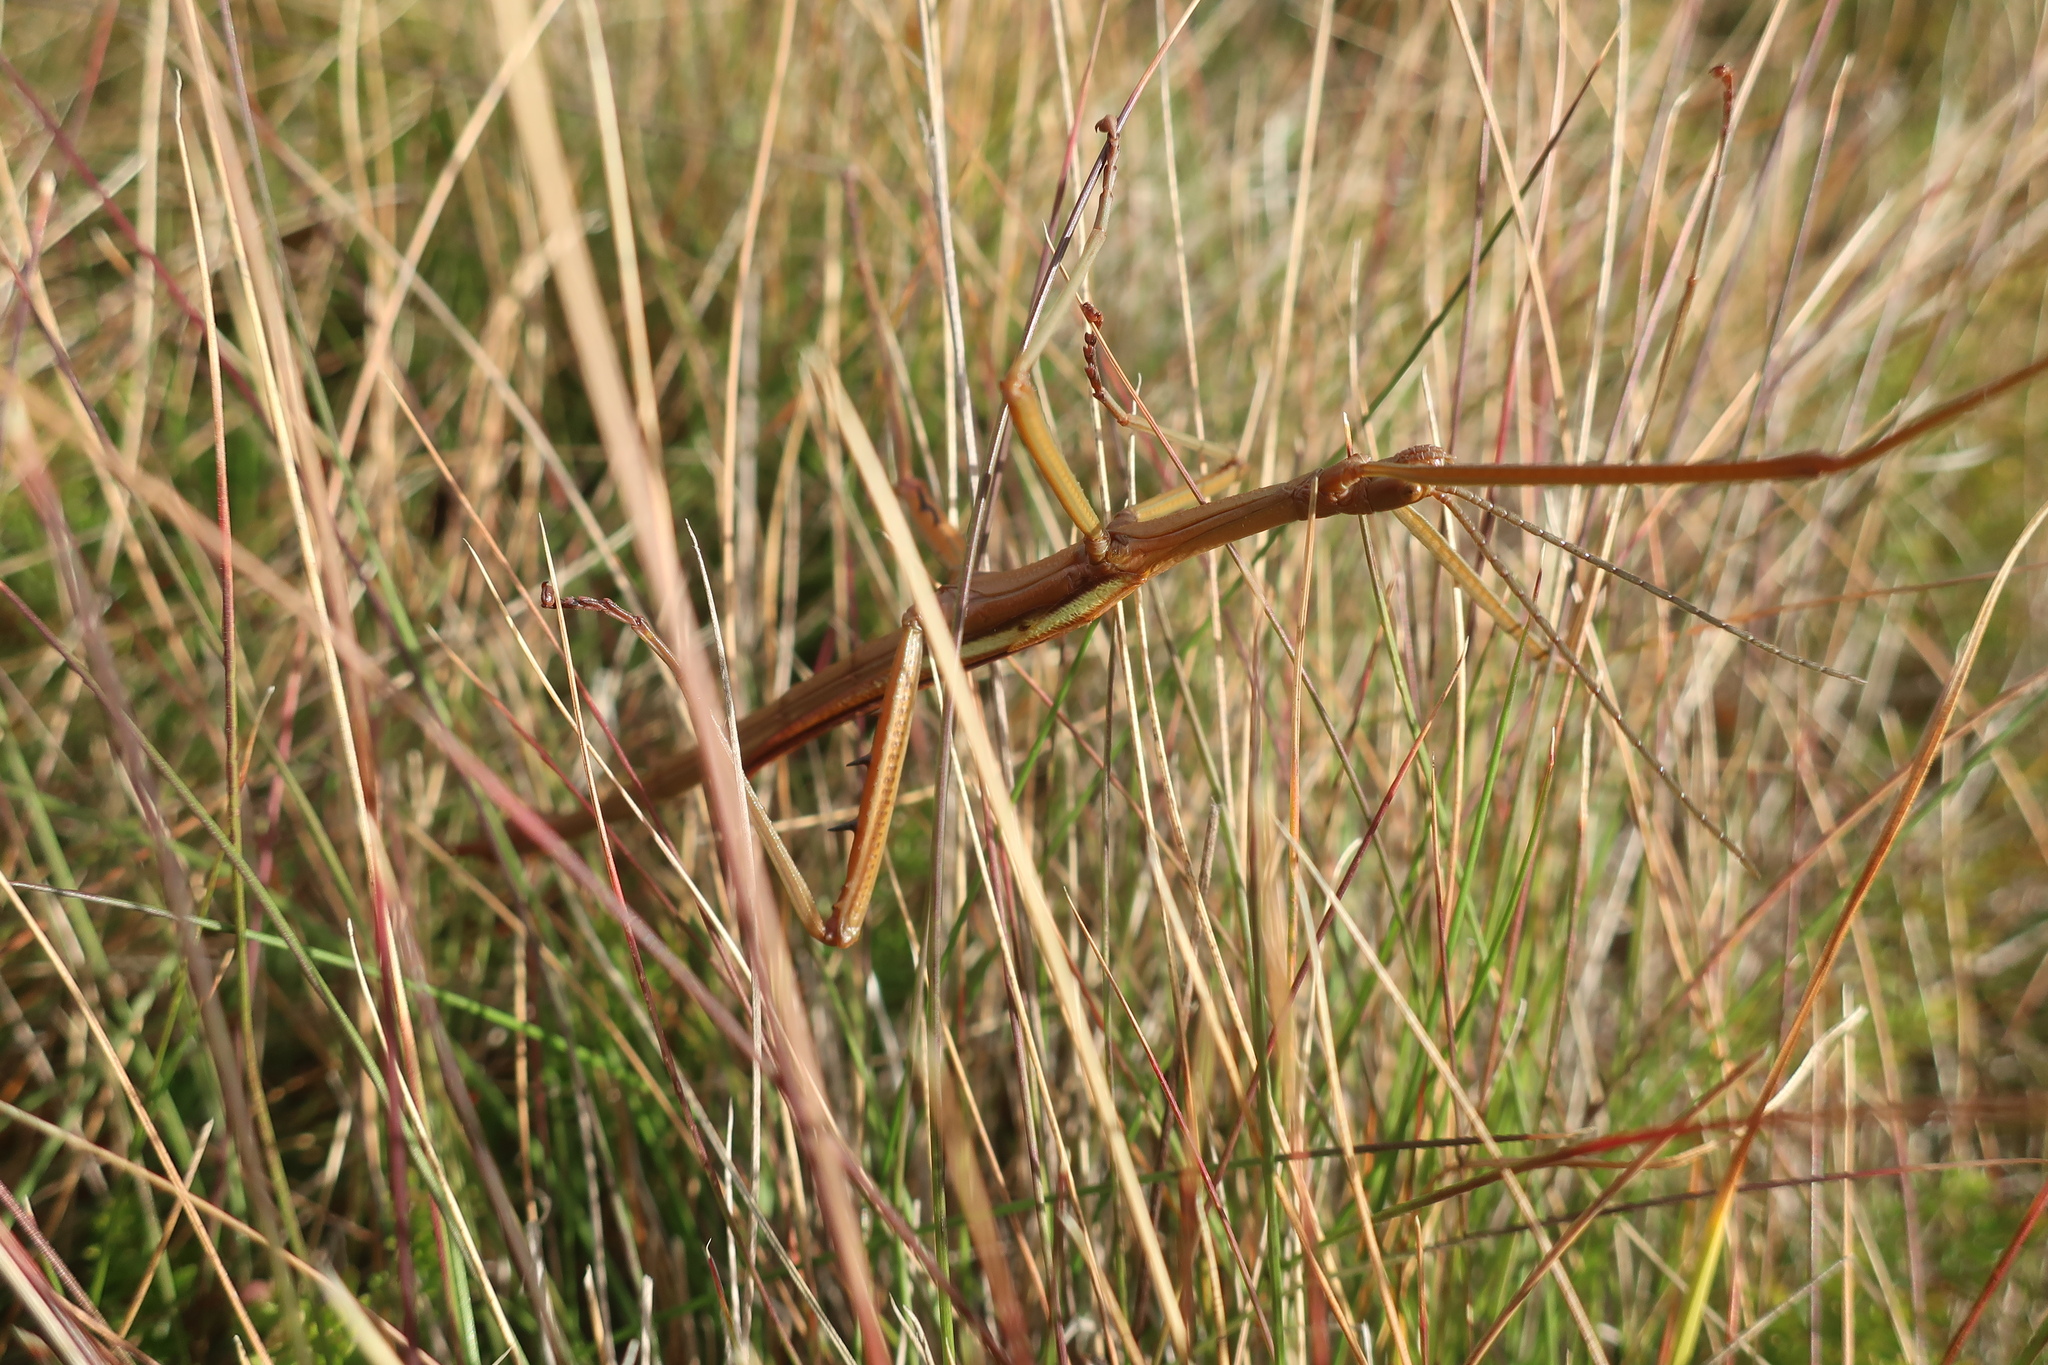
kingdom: Animalia
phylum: Arthropoda
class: Insecta
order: Phasmida
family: Phasmatidae
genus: Didymuria
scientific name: Didymuria violescens
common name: Spur-legged stick-insect
